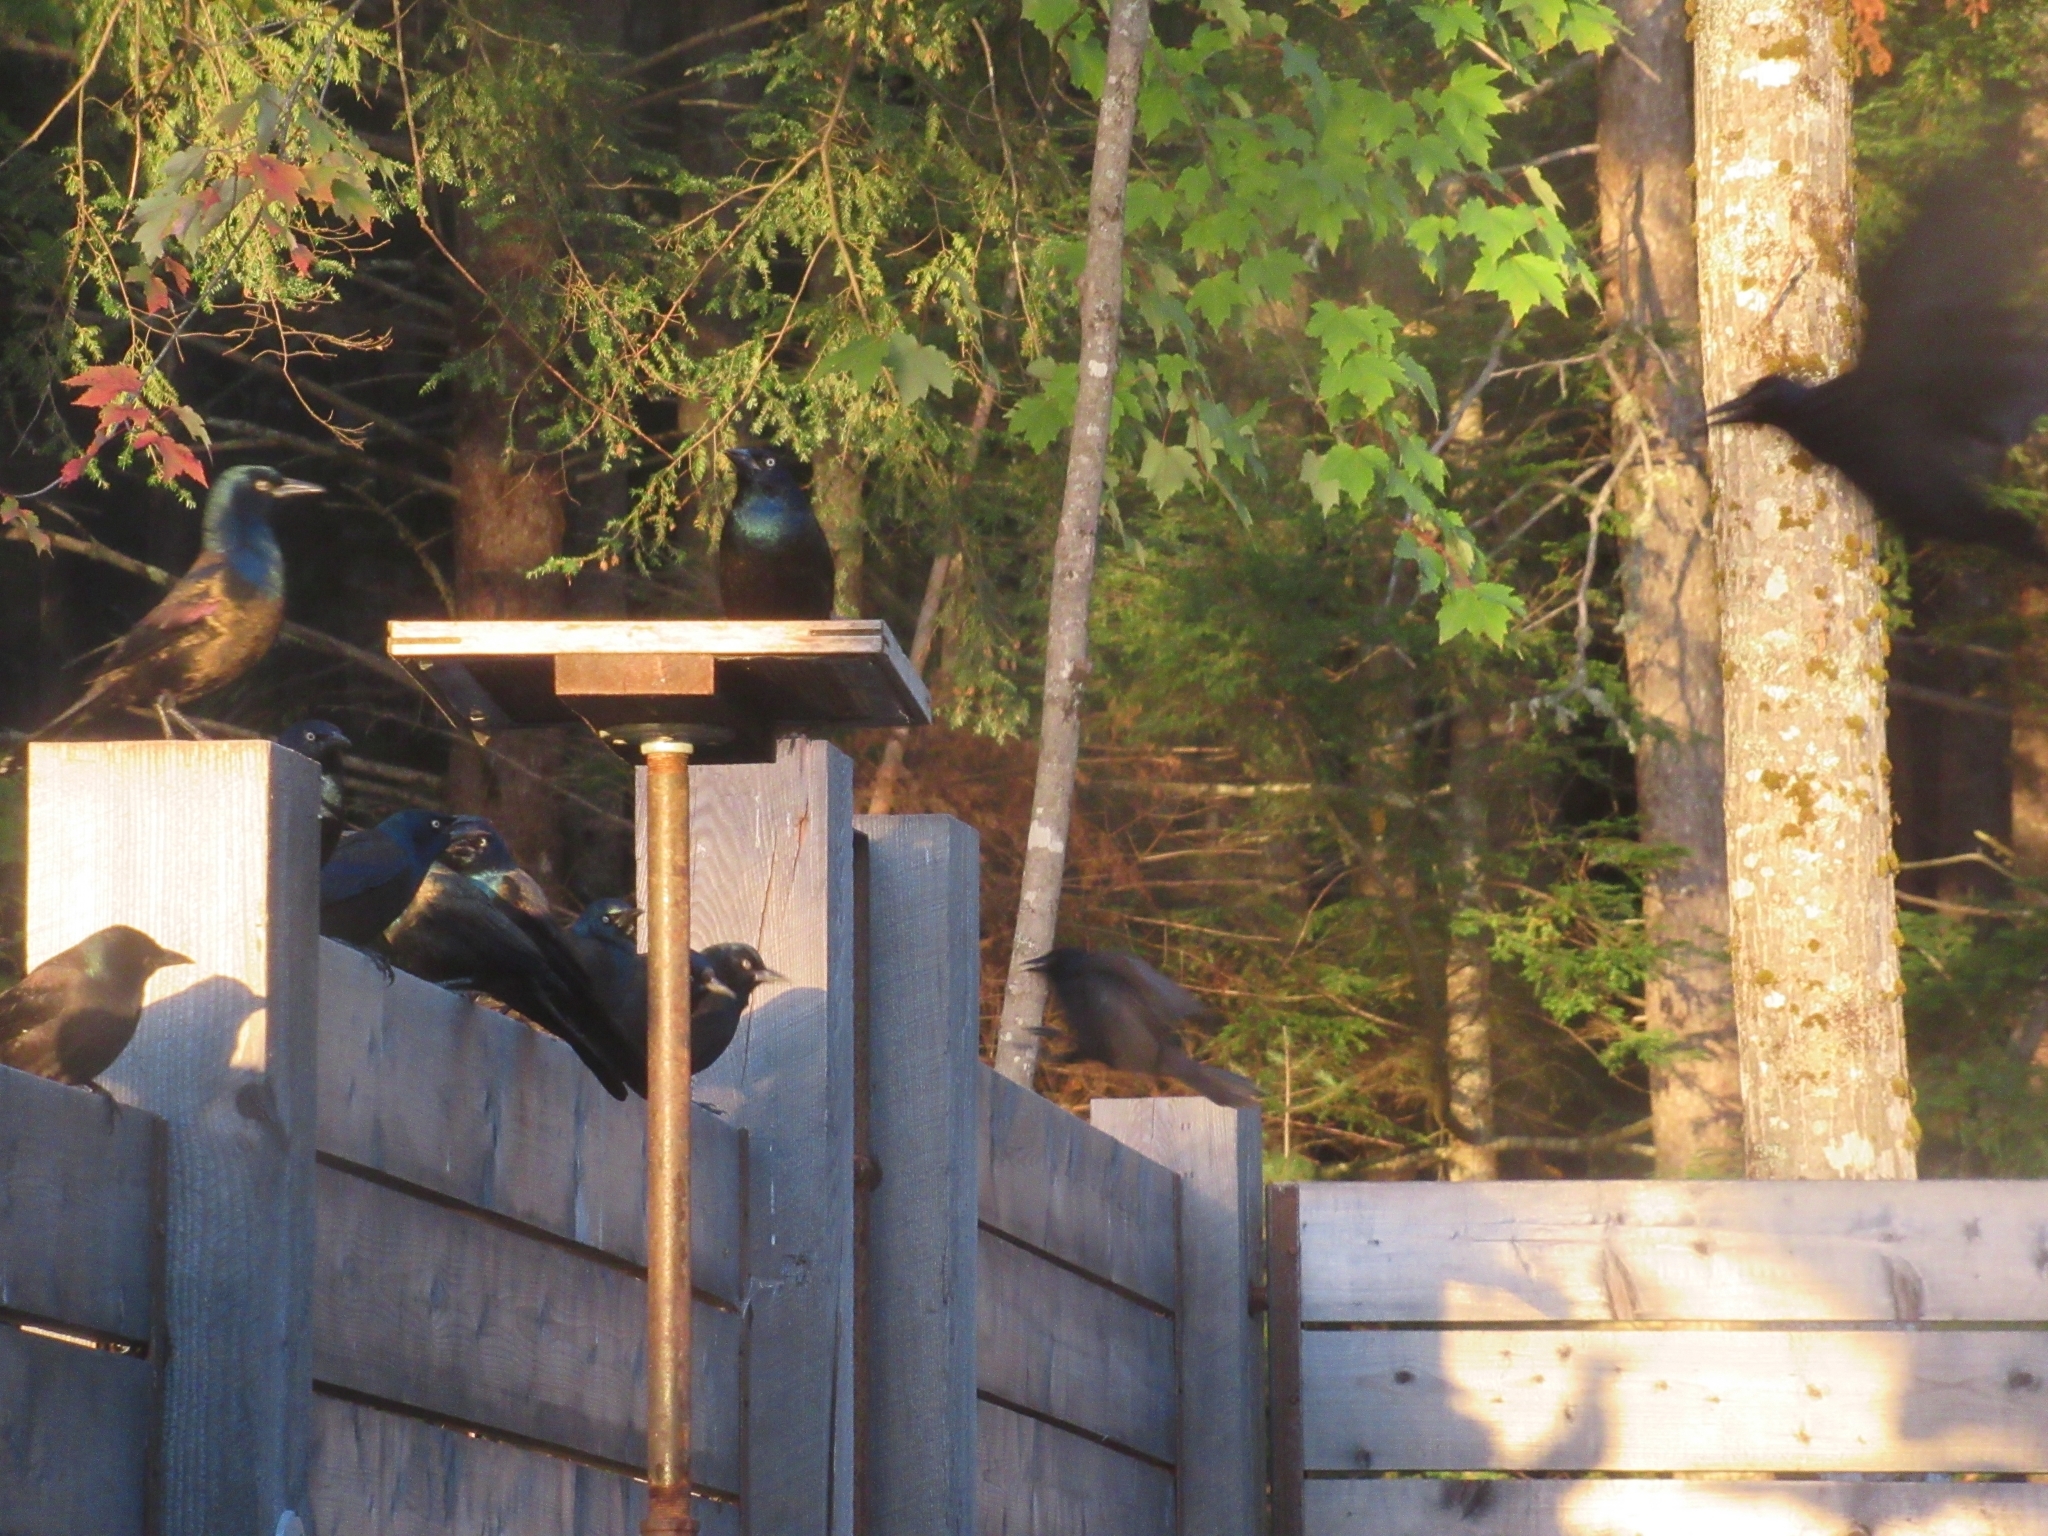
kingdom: Animalia
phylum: Chordata
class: Aves
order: Passeriformes
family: Icteridae
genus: Quiscalus
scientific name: Quiscalus quiscula
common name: Common grackle
